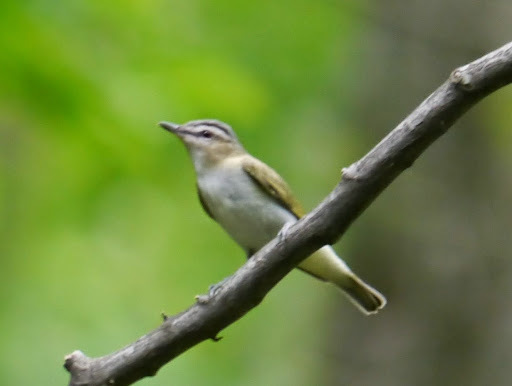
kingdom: Animalia
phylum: Chordata
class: Aves
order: Passeriformes
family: Vireonidae
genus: Vireo
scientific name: Vireo olivaceus
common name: Red-eyed vireo
